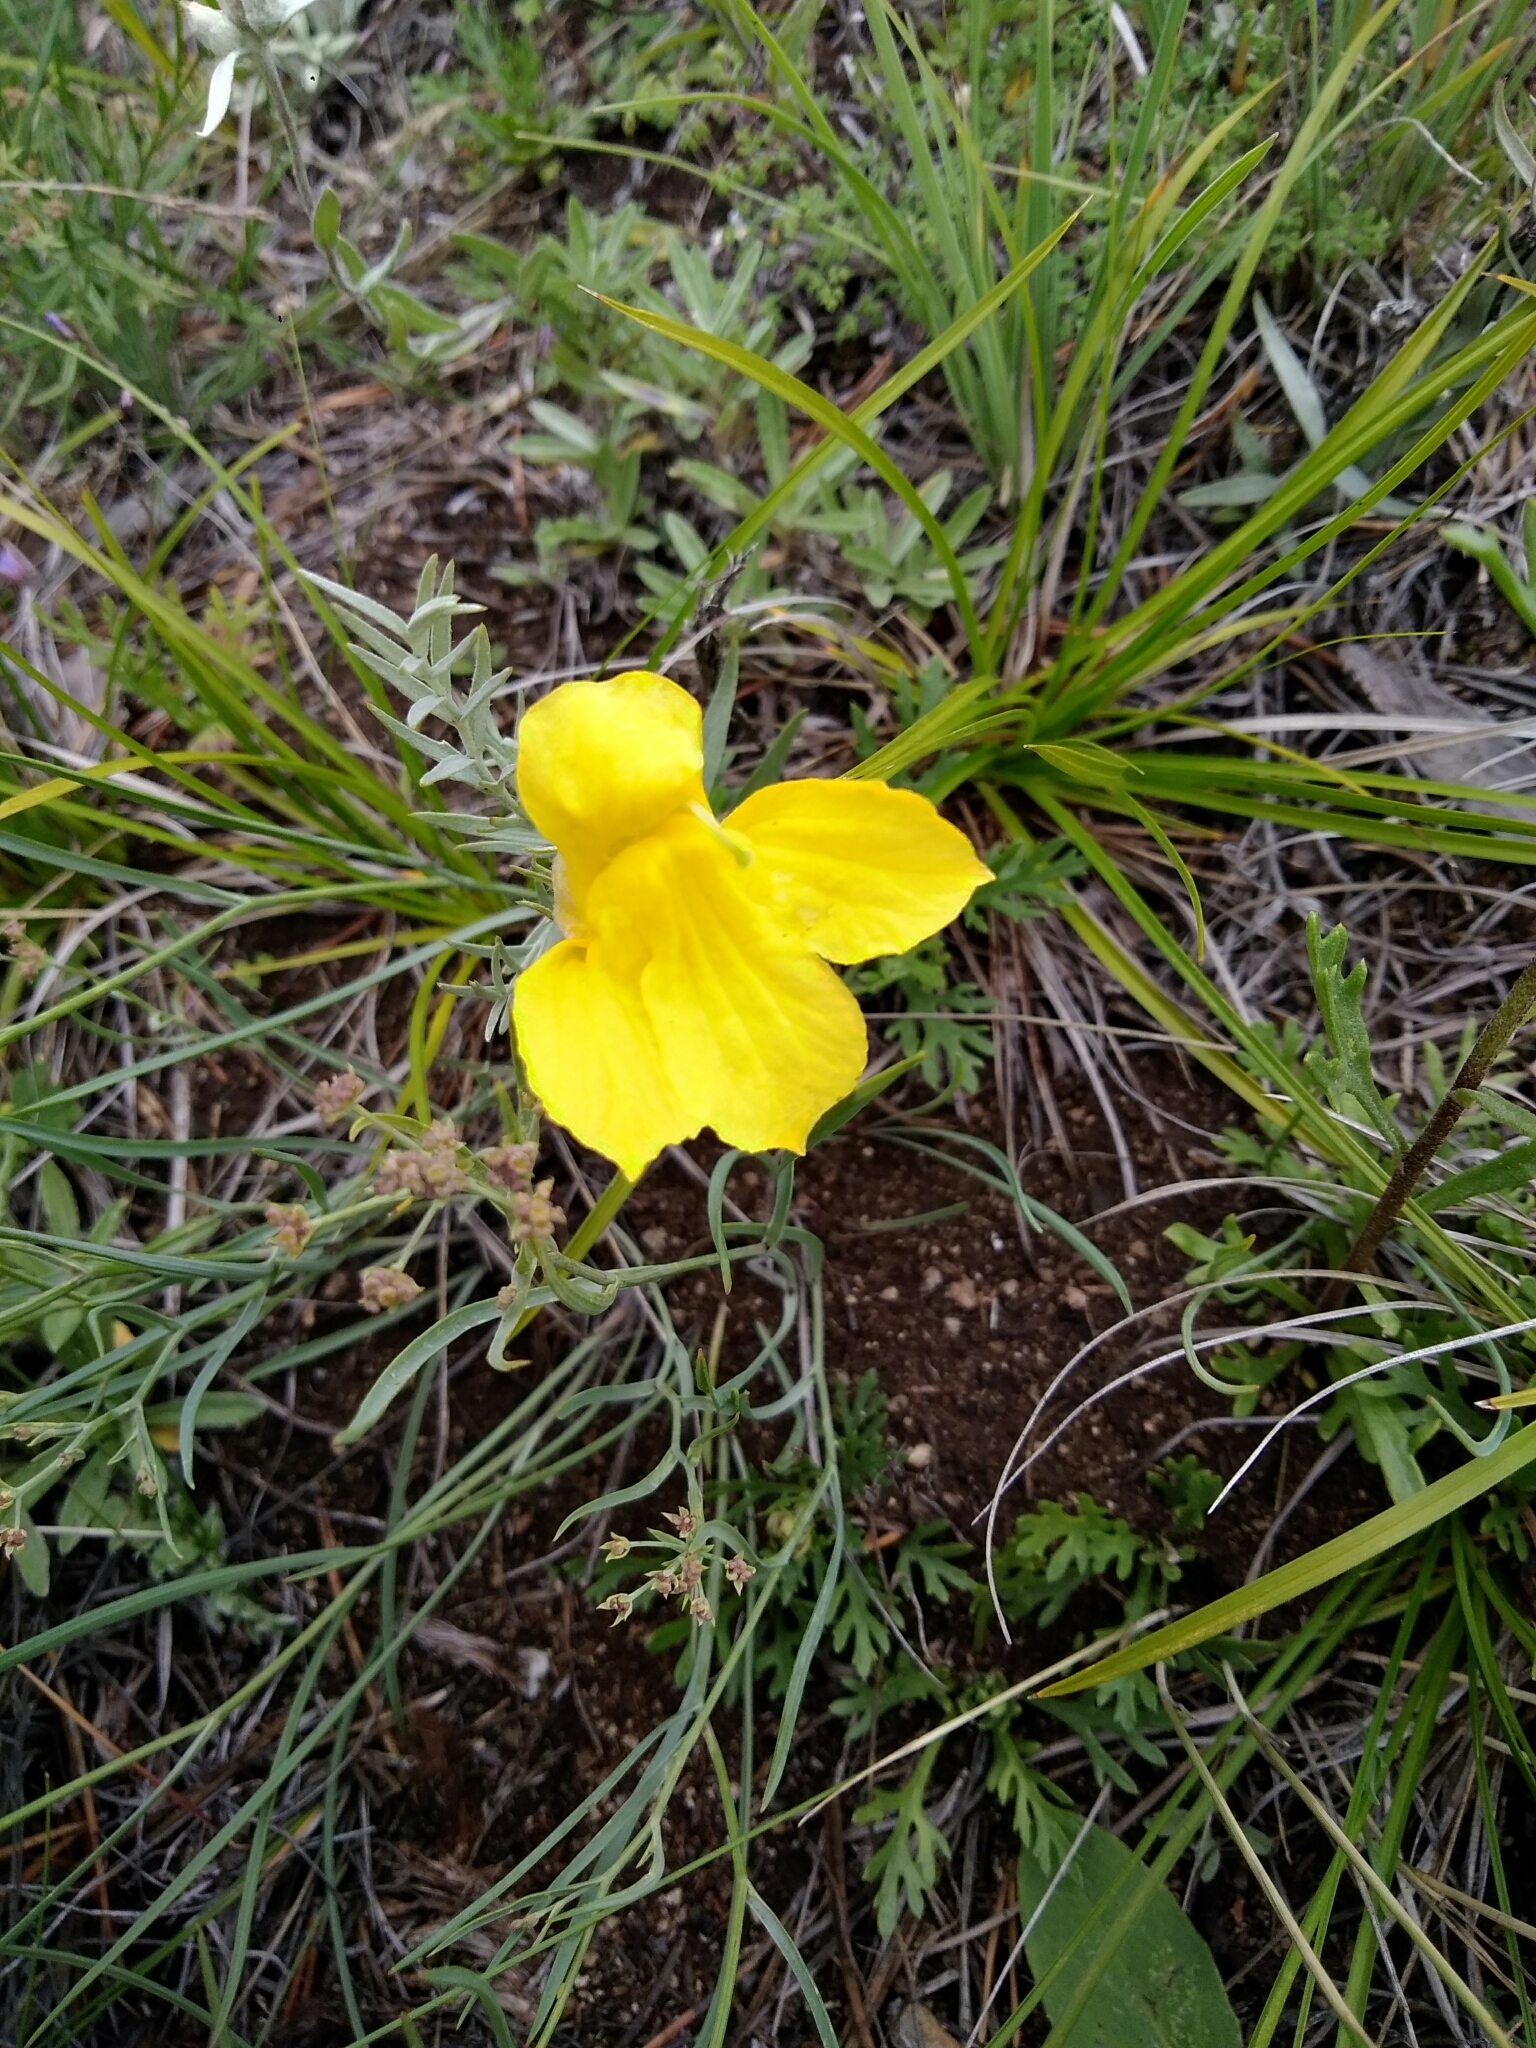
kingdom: Plantae
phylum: Tracheophyta
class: Magnoliopsida
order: Lamiales
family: Orobanchaceae
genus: Cymbaria
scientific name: Cymbaria daurica
